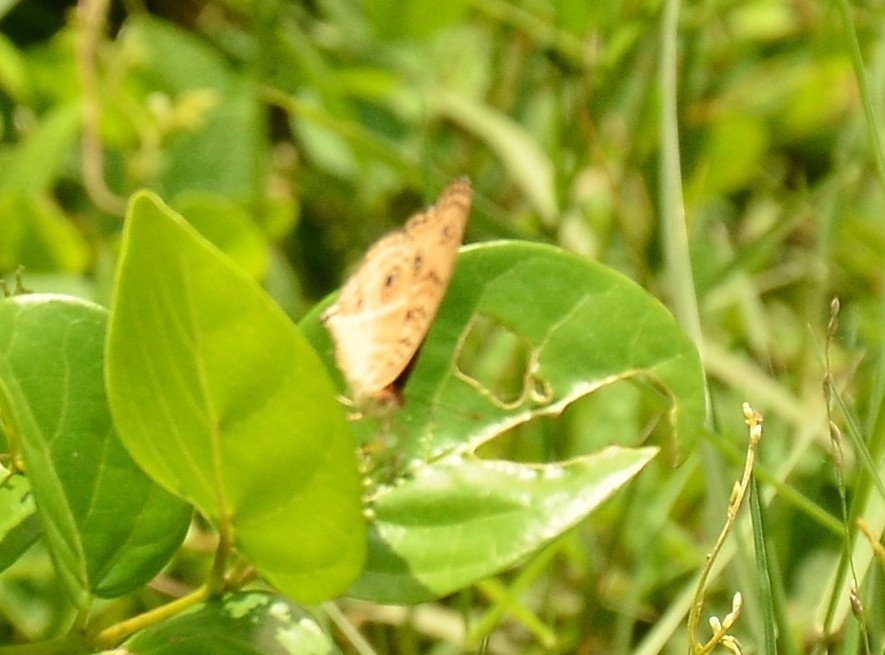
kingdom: Animalia
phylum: Arthropoda
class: Insecta
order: Lepidoptera
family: Nymphalidae
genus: Junonia
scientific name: Junonia almana
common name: Peacock pansy
